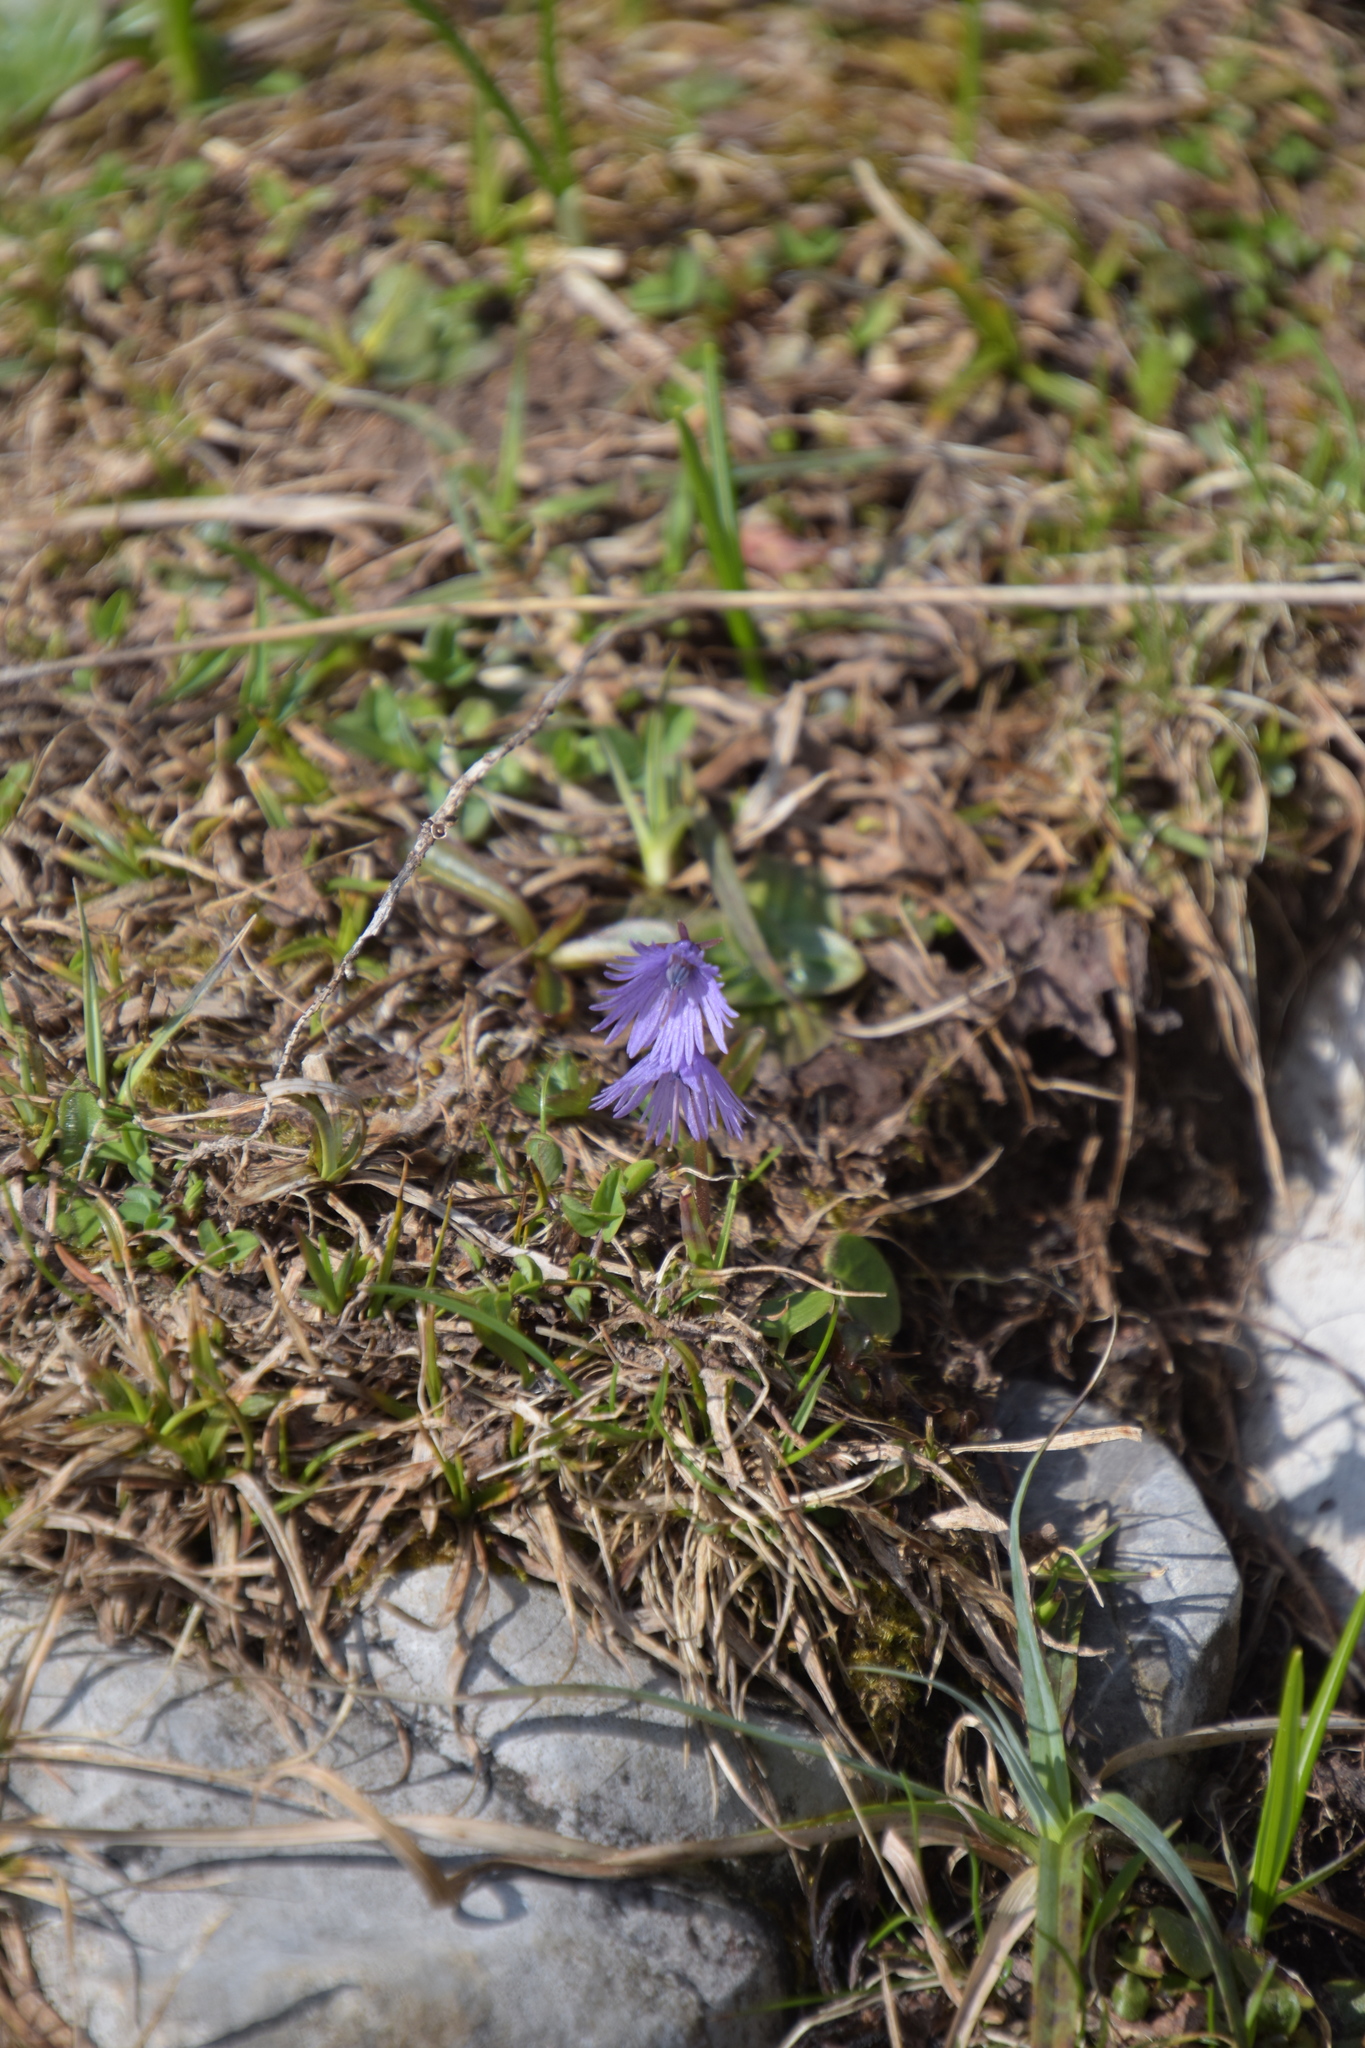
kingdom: Plantae
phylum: Tracheophyta
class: Magnoliopsida
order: Ericales
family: Primulaceae
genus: Soldanella
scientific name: Soldanella alpina
